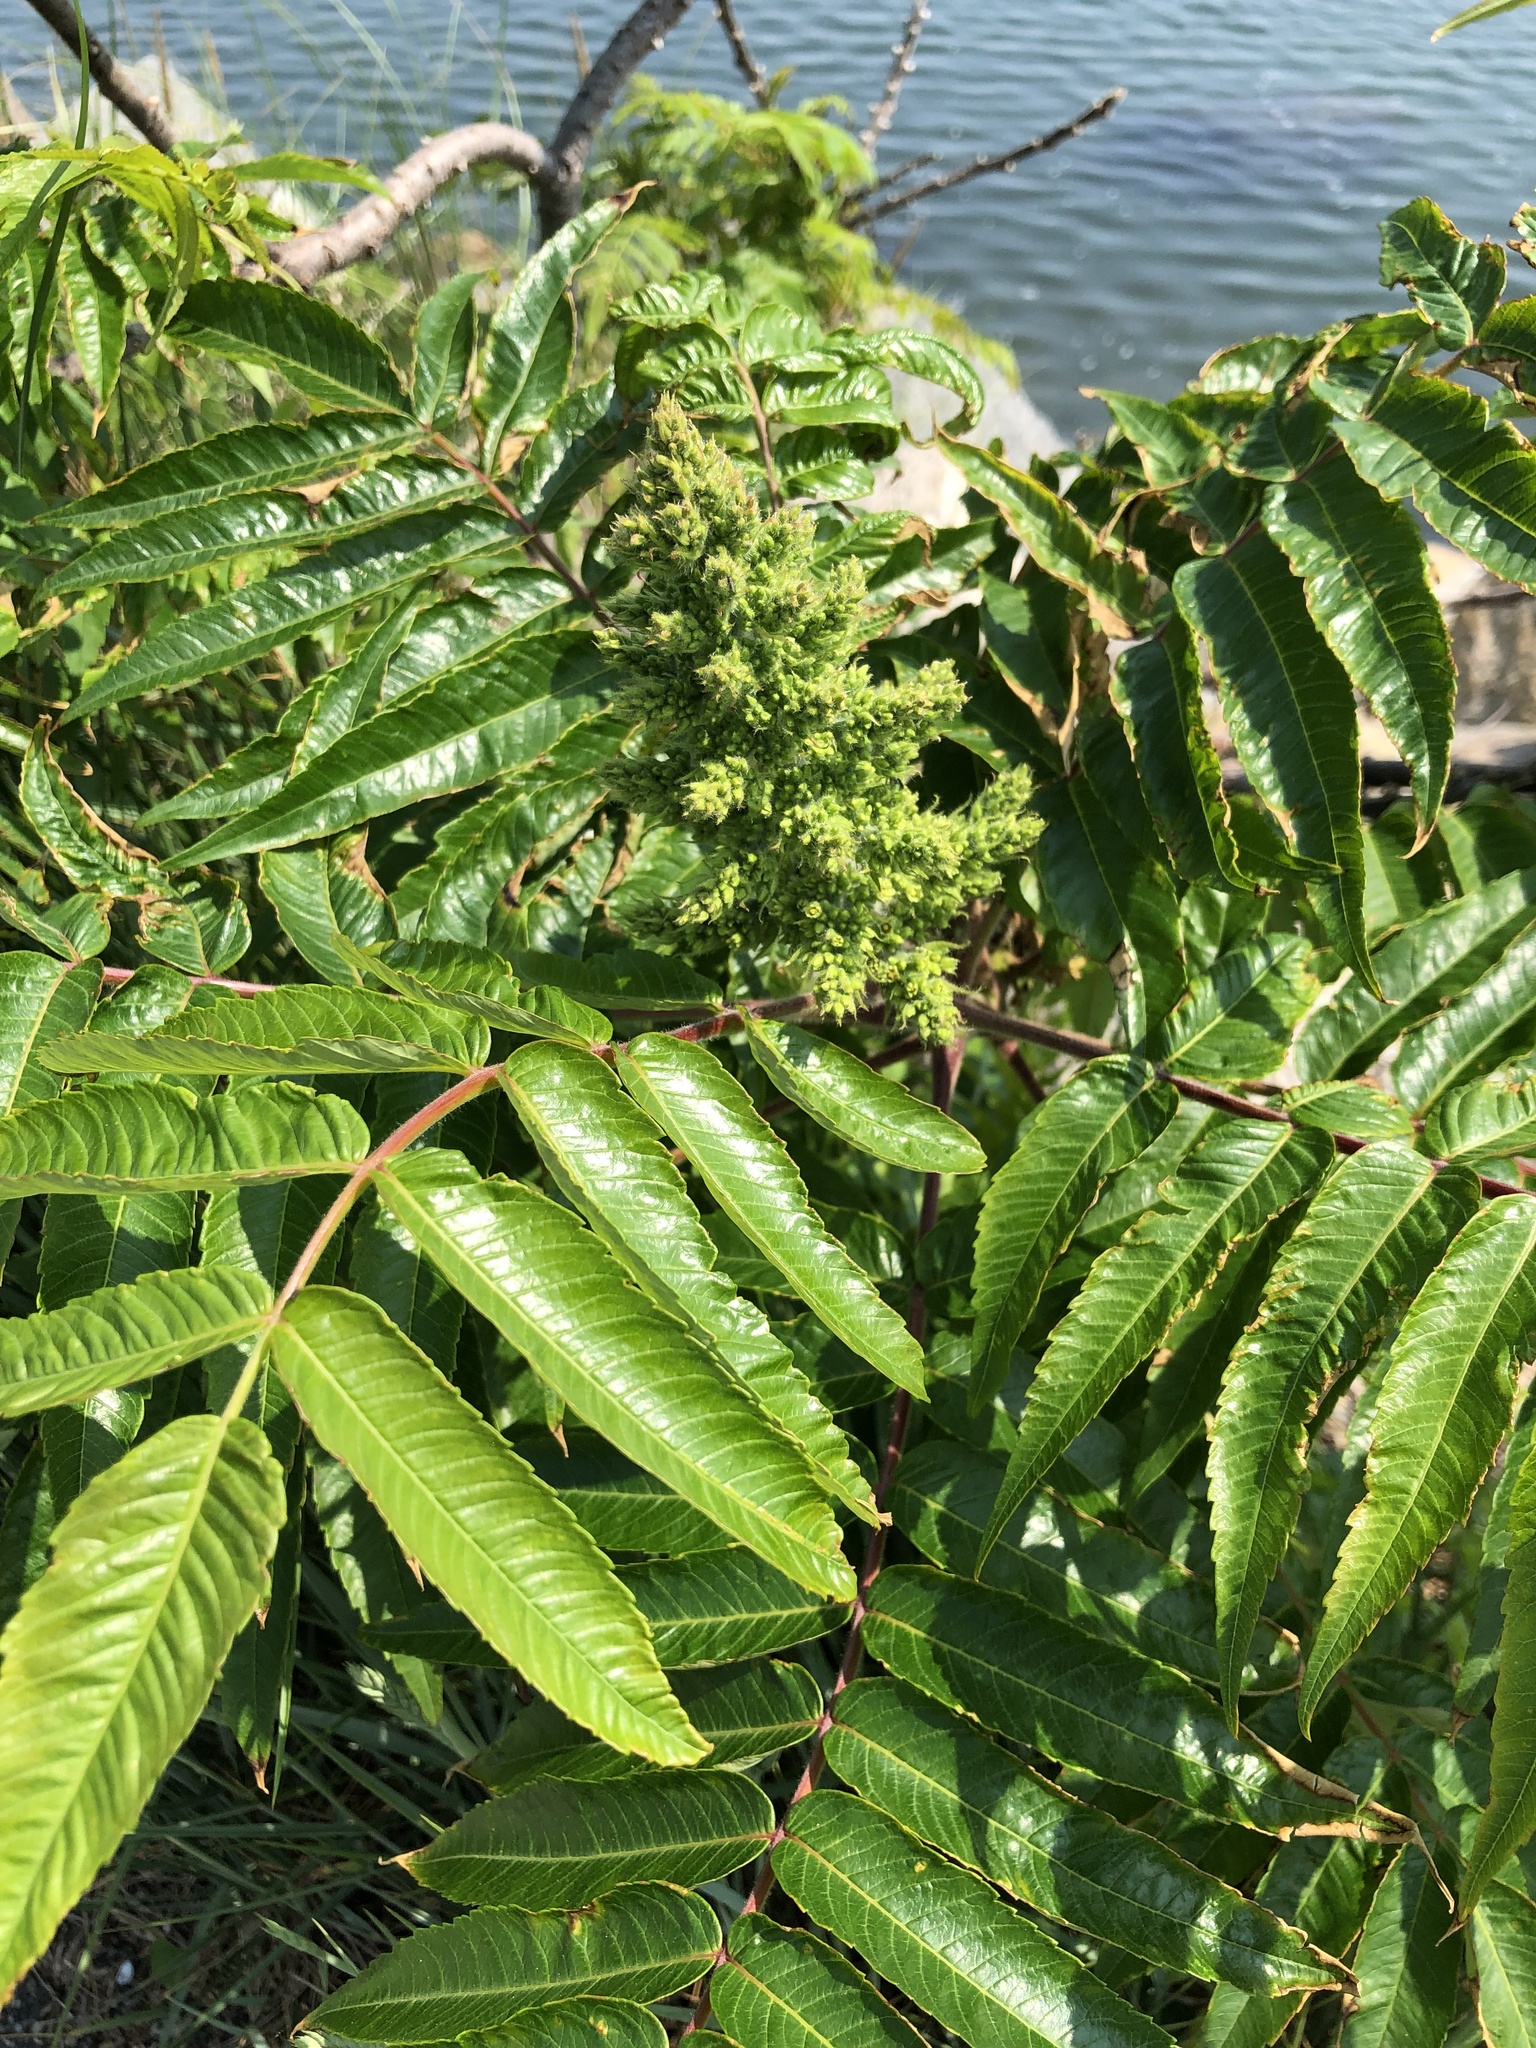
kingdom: Plantae
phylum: Tracheophyta
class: Magnoliopsida
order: Sapindales
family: Anacardiaceae
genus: Rhus
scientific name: Rhus typhina
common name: Staghorn sumac
